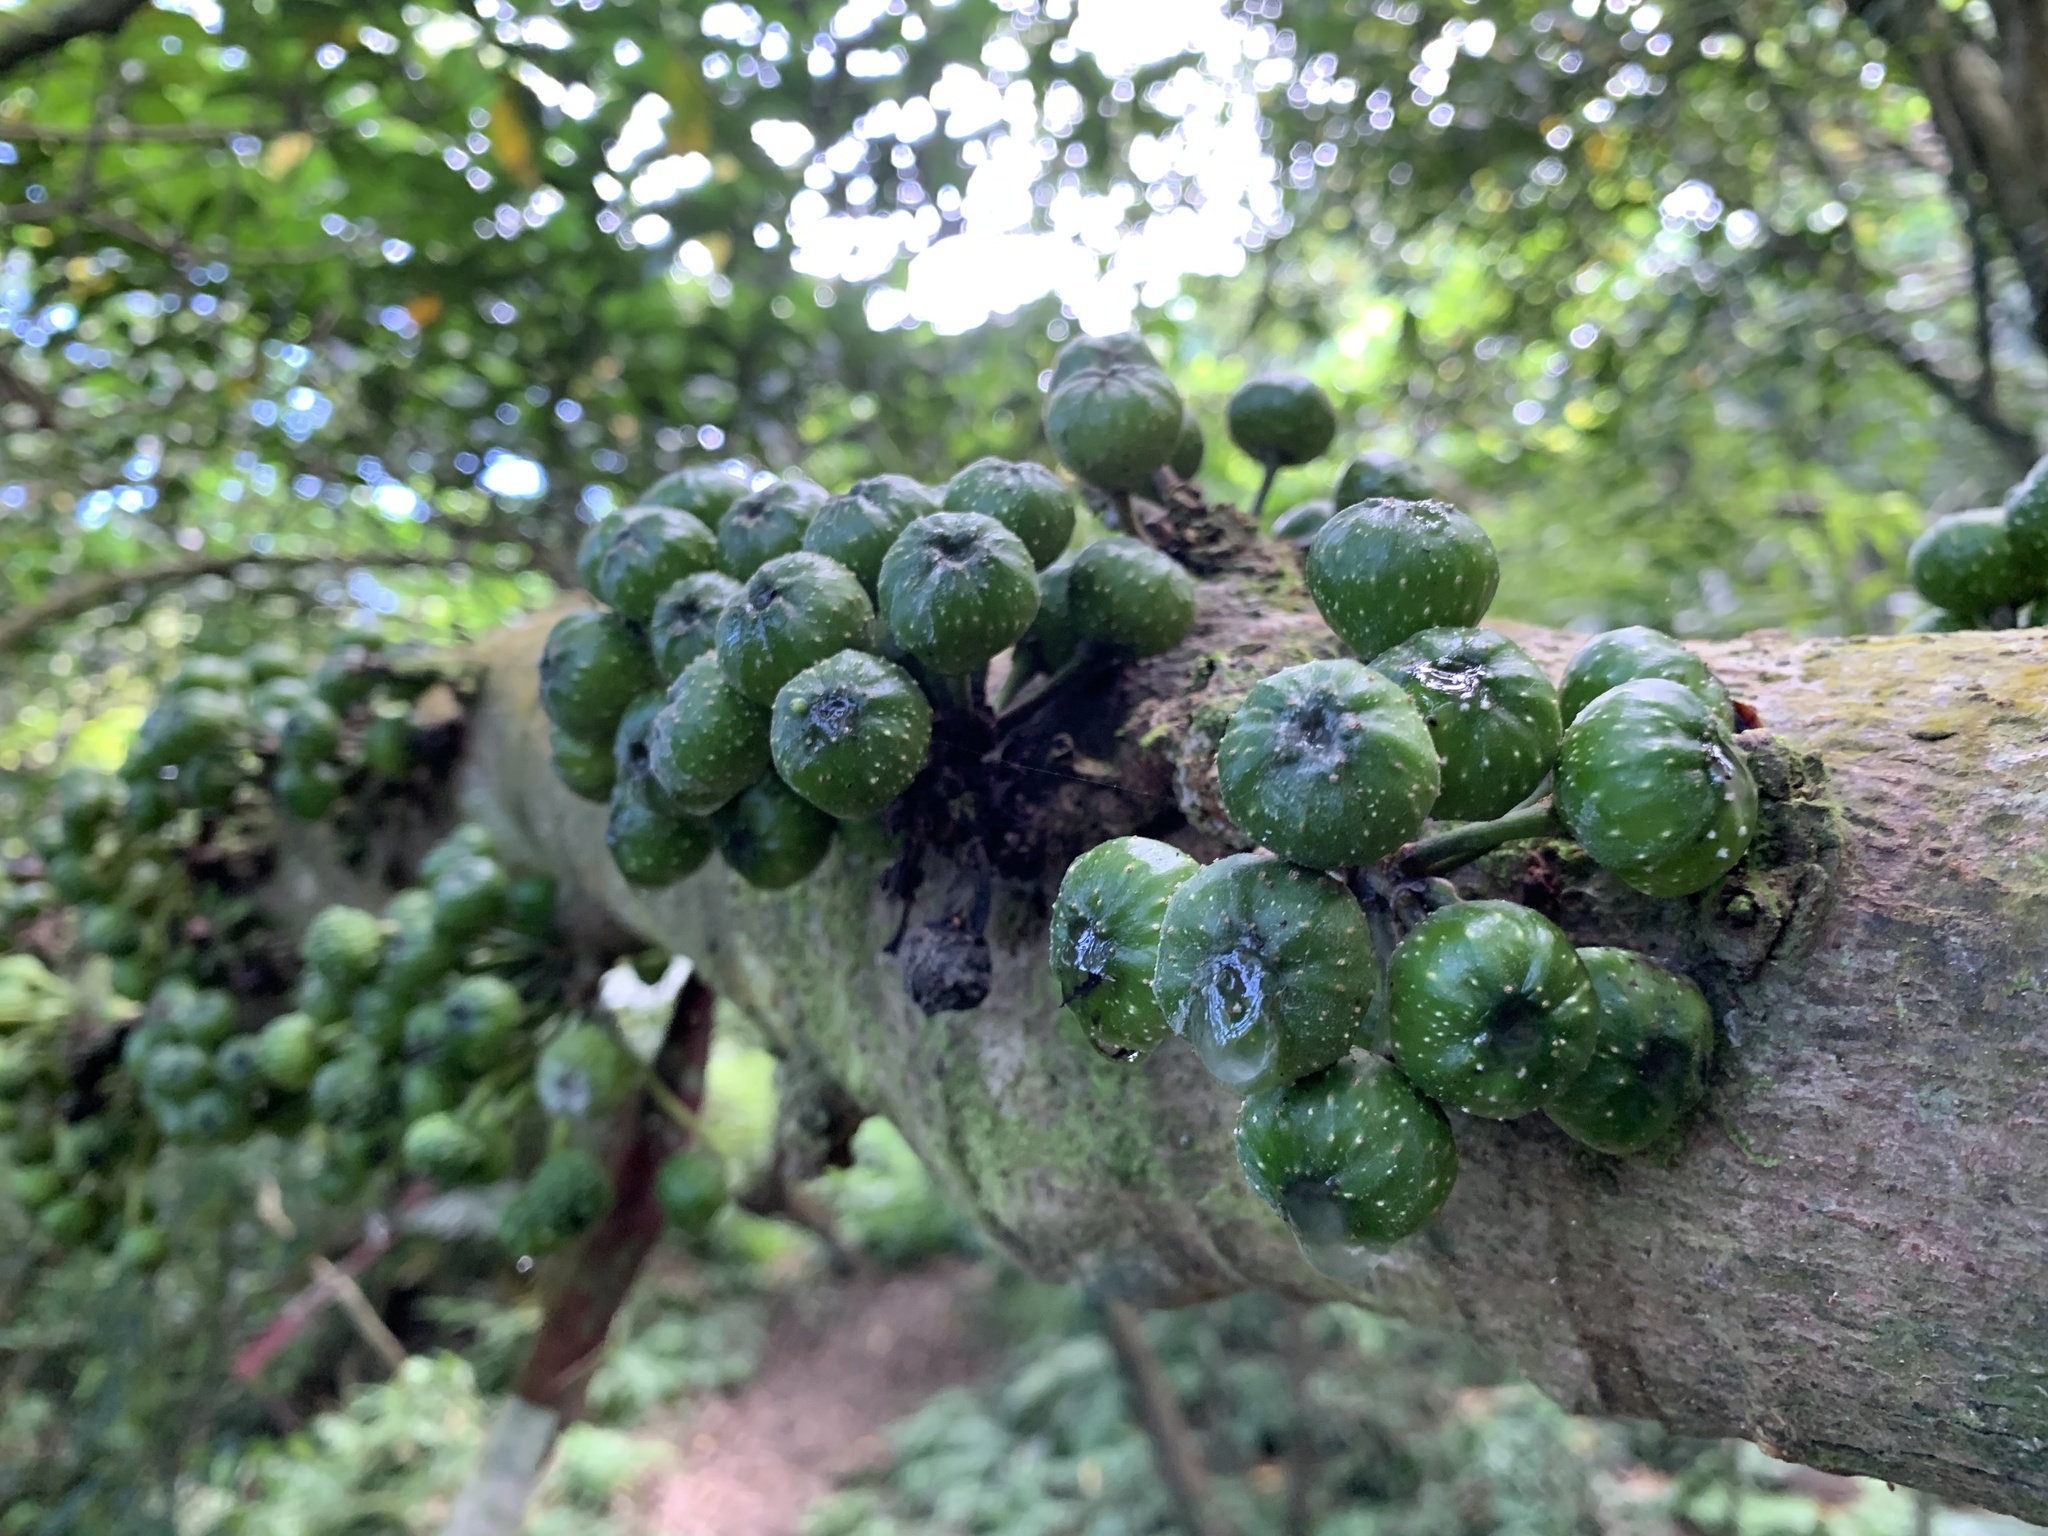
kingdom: Plantae
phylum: Tracheophyta
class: Magnoliopsida
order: Rosales
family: Moraceae
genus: Ficus
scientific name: Ficus fistulosa
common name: Figs
